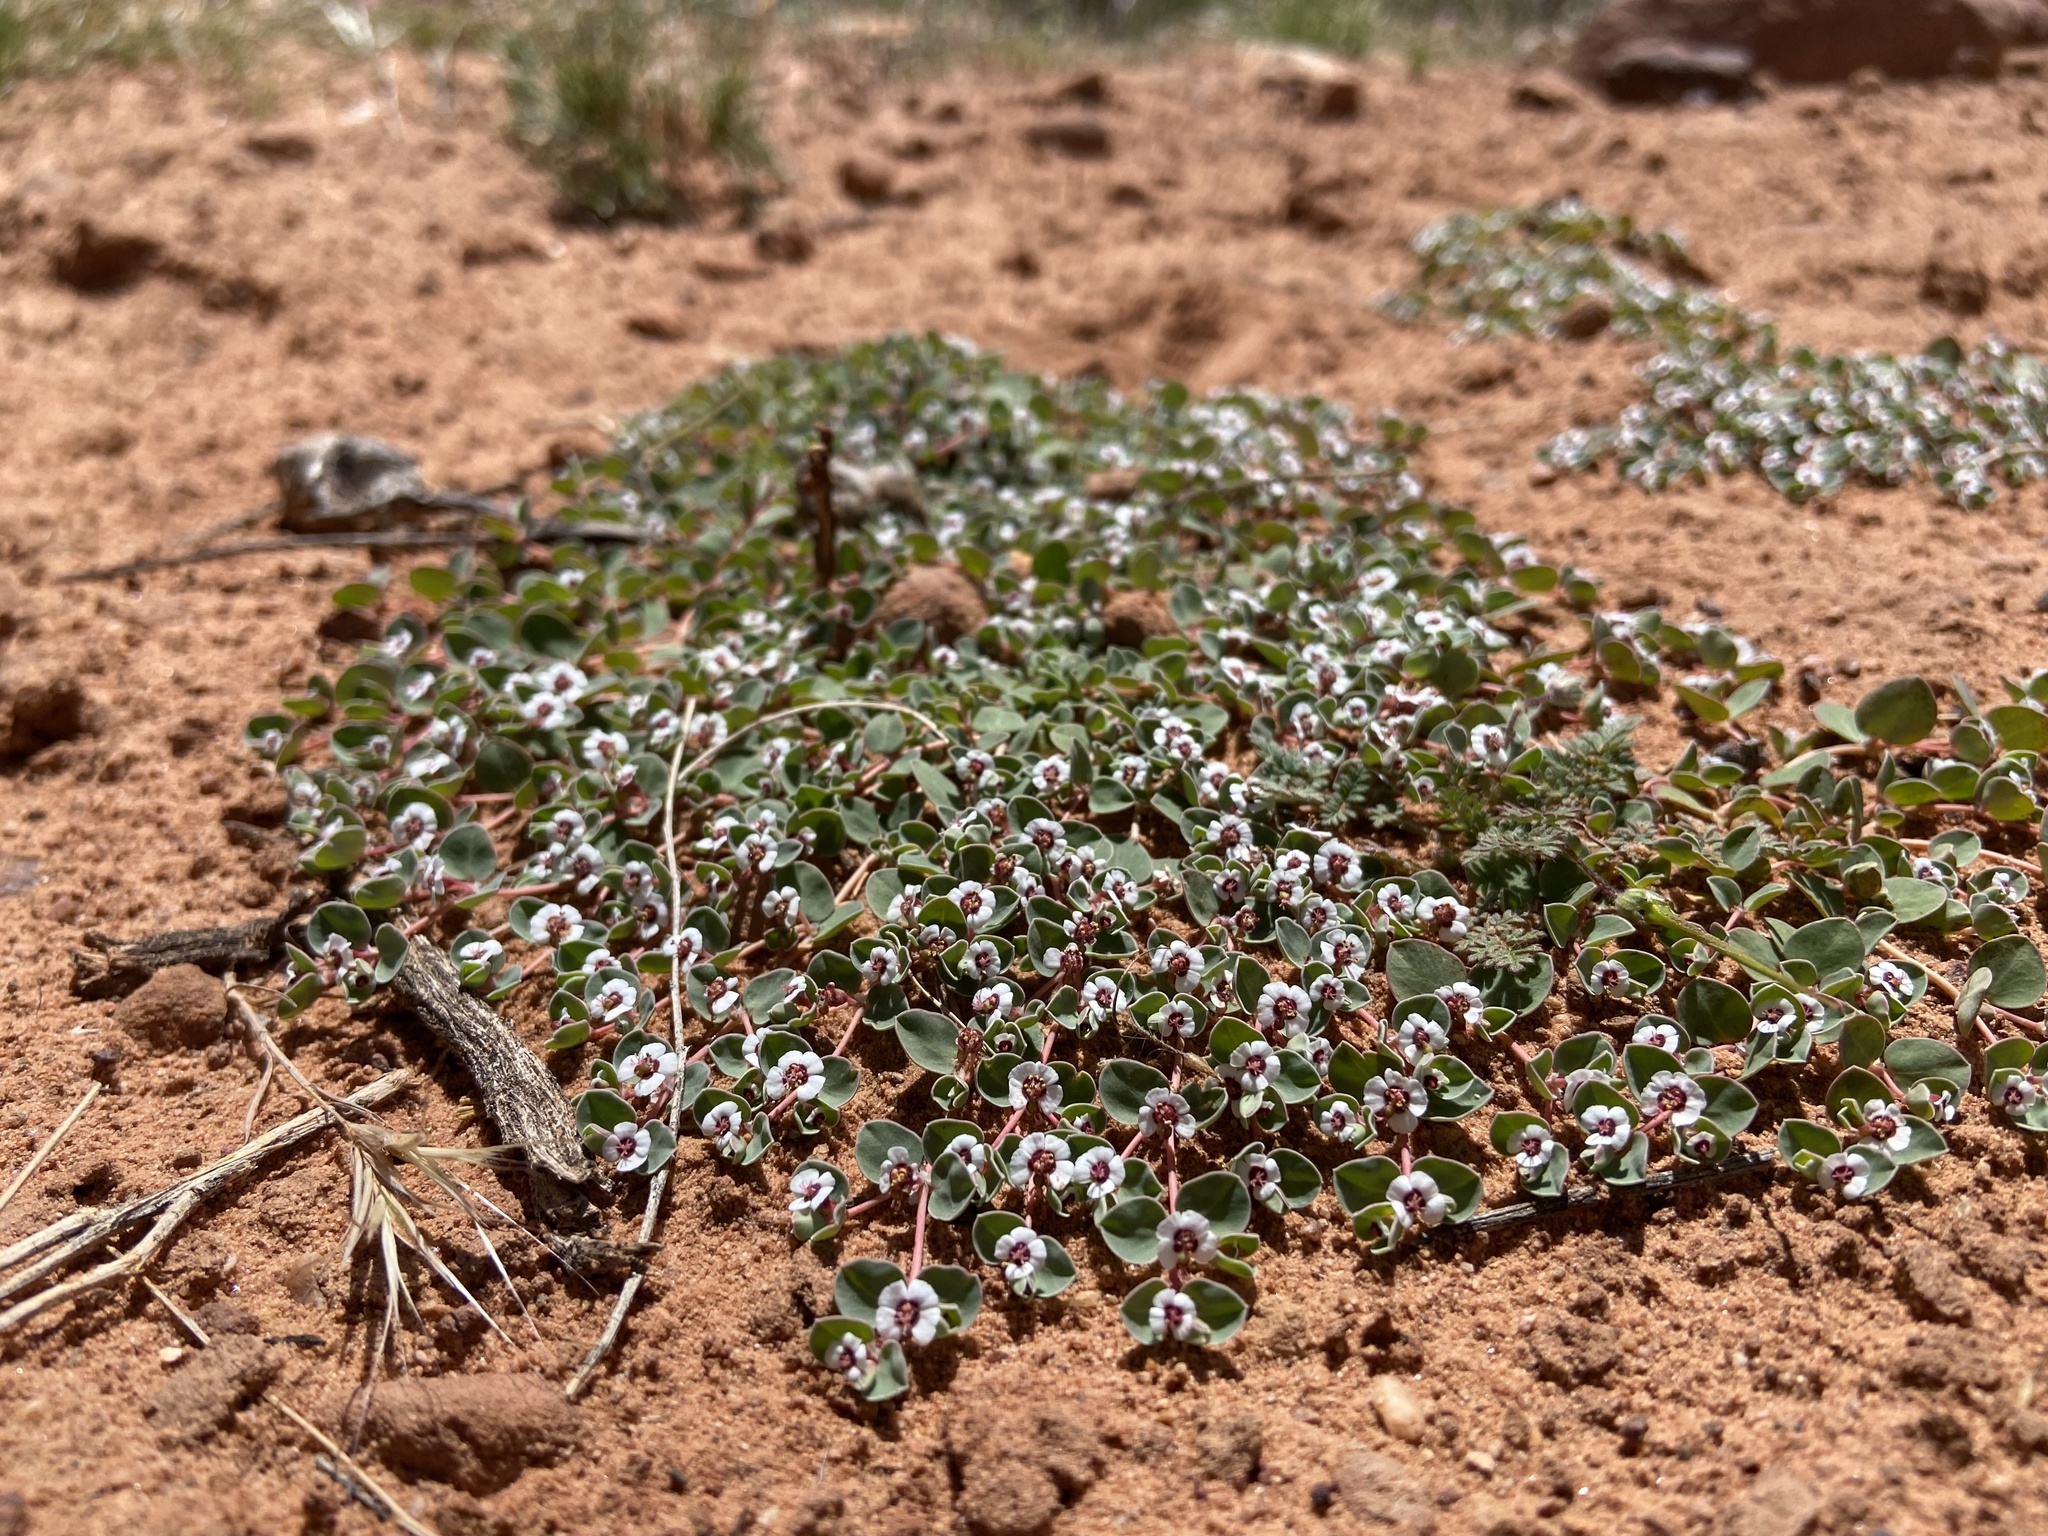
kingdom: Plantae
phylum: Tracheophyta
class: Magnoliopsida
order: Malpighiales
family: Euphorbiaceae
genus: Euphorbia
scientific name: Euphorbia albomarginata
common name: Whitemargin sandmat
